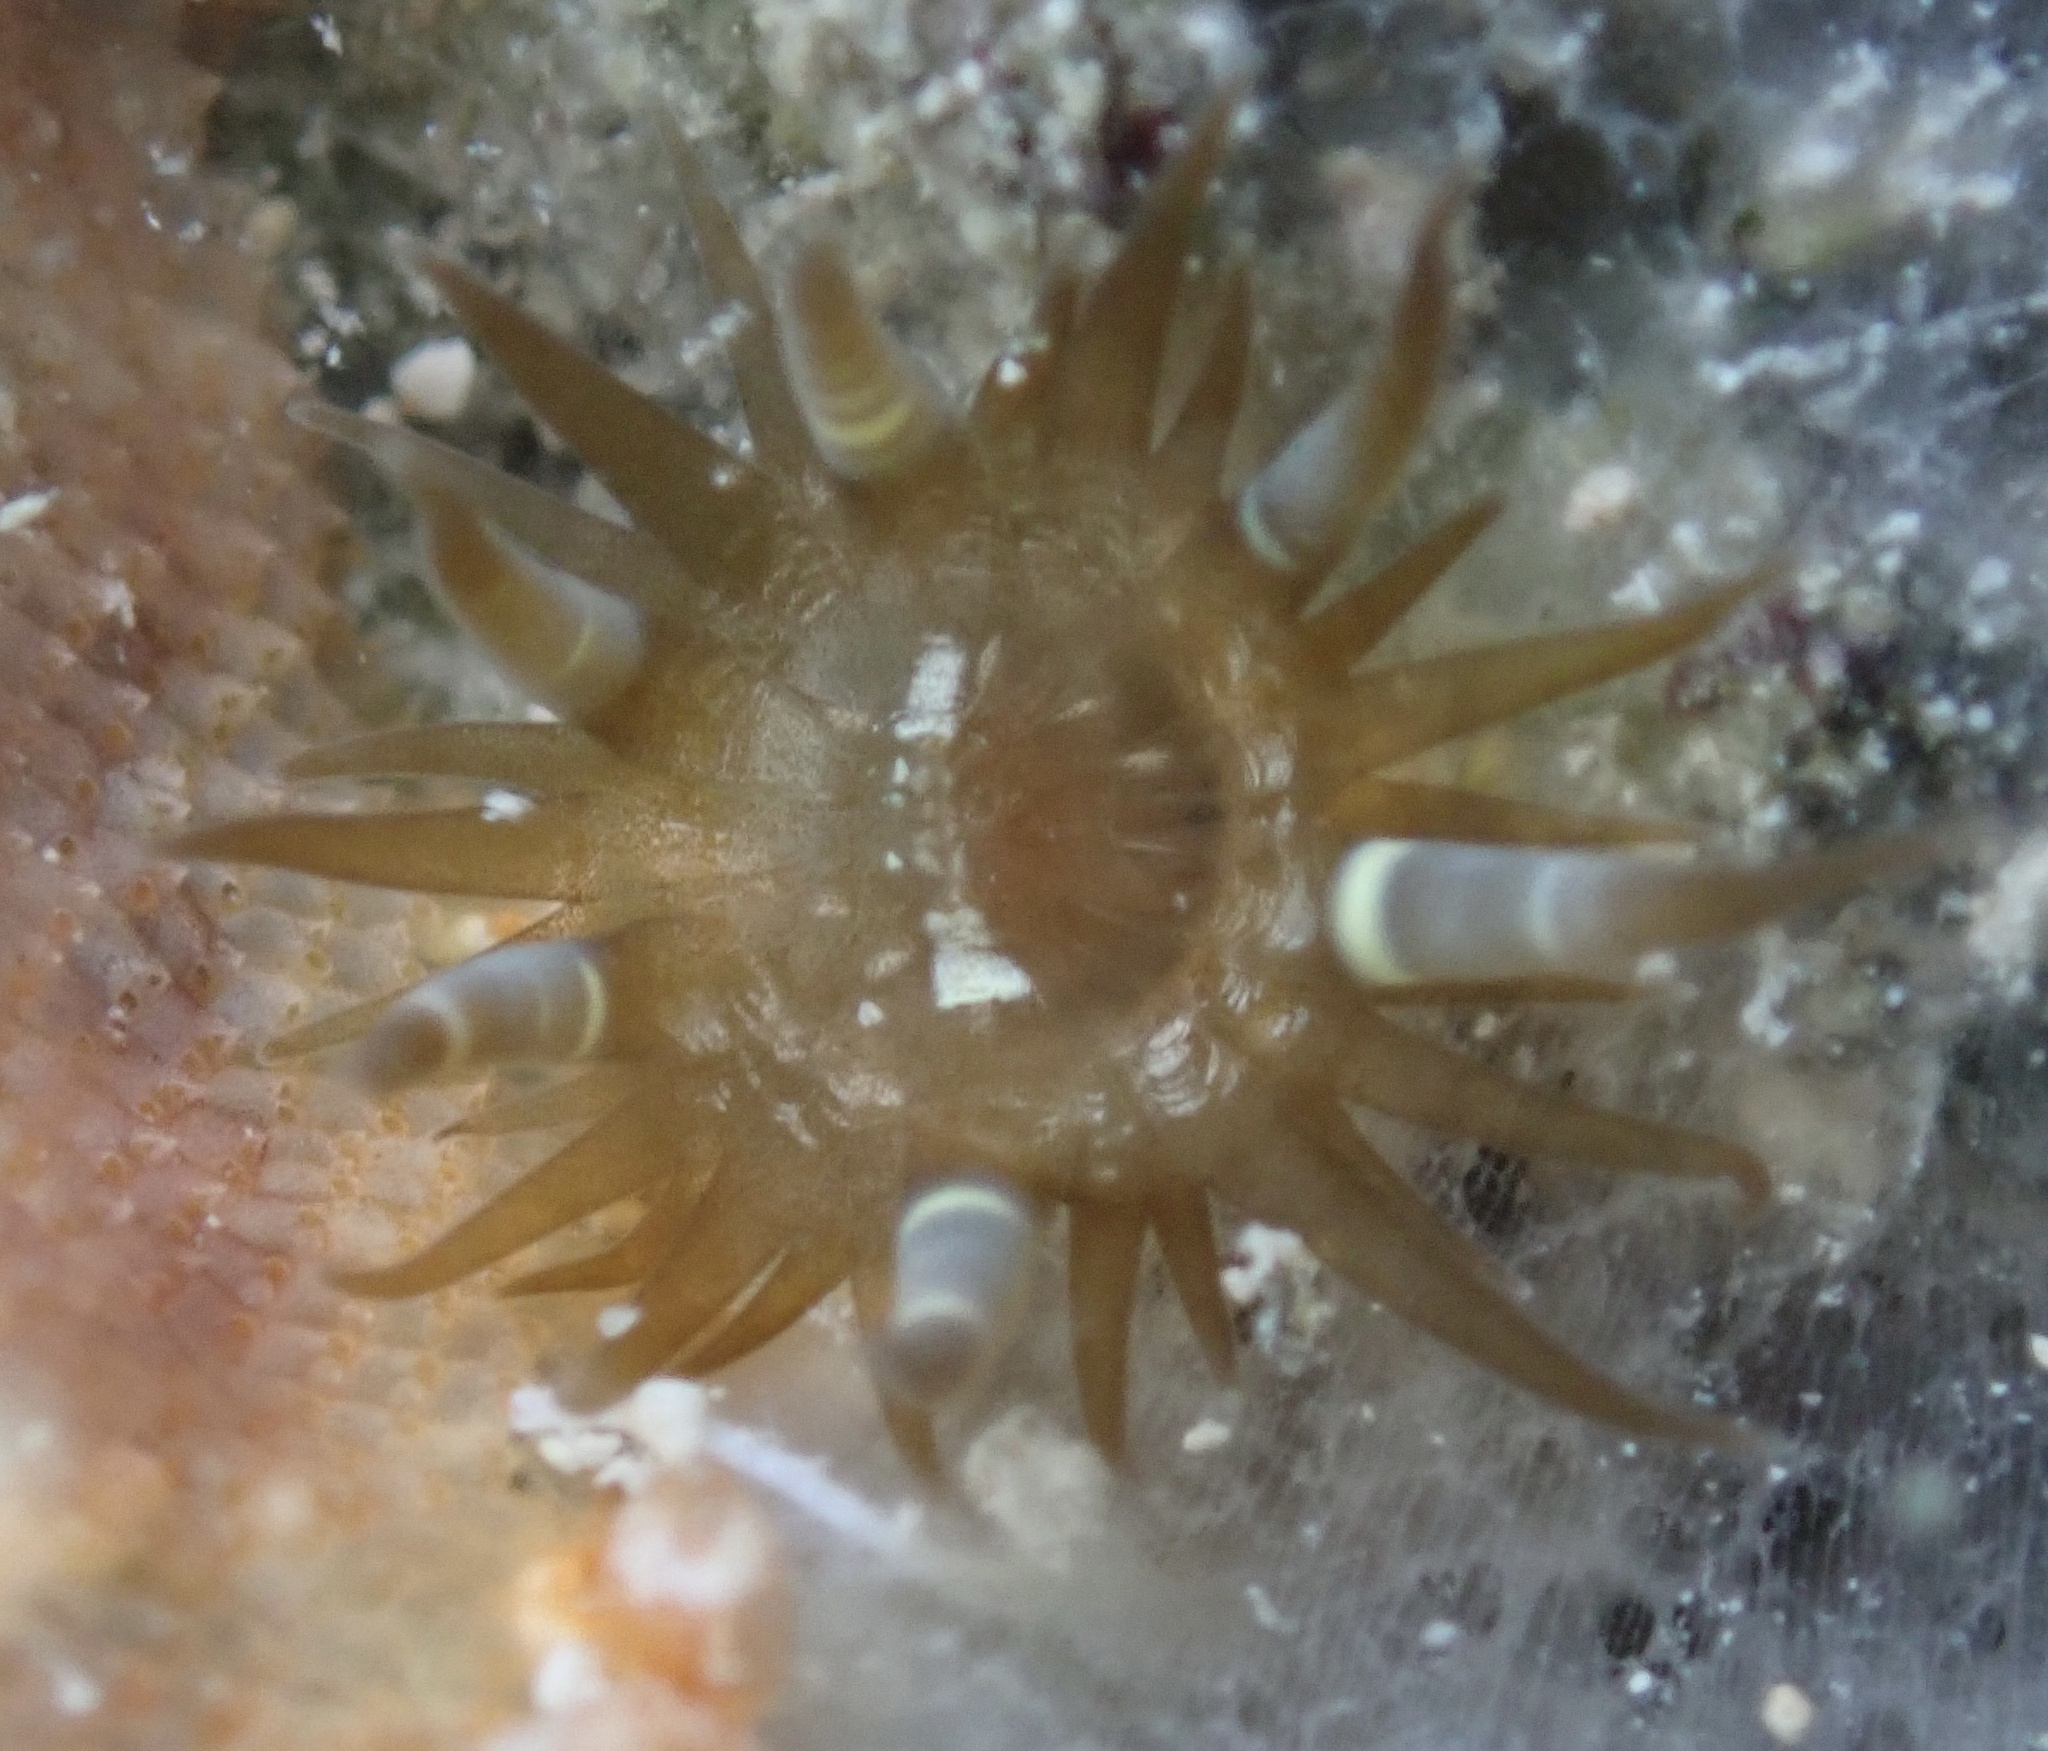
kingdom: Animalia
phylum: Cnidaria
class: Anthozoa
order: Actiniaria
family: Aiptasiidae
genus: Exaiptasia
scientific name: Exaiptasia diaphana
